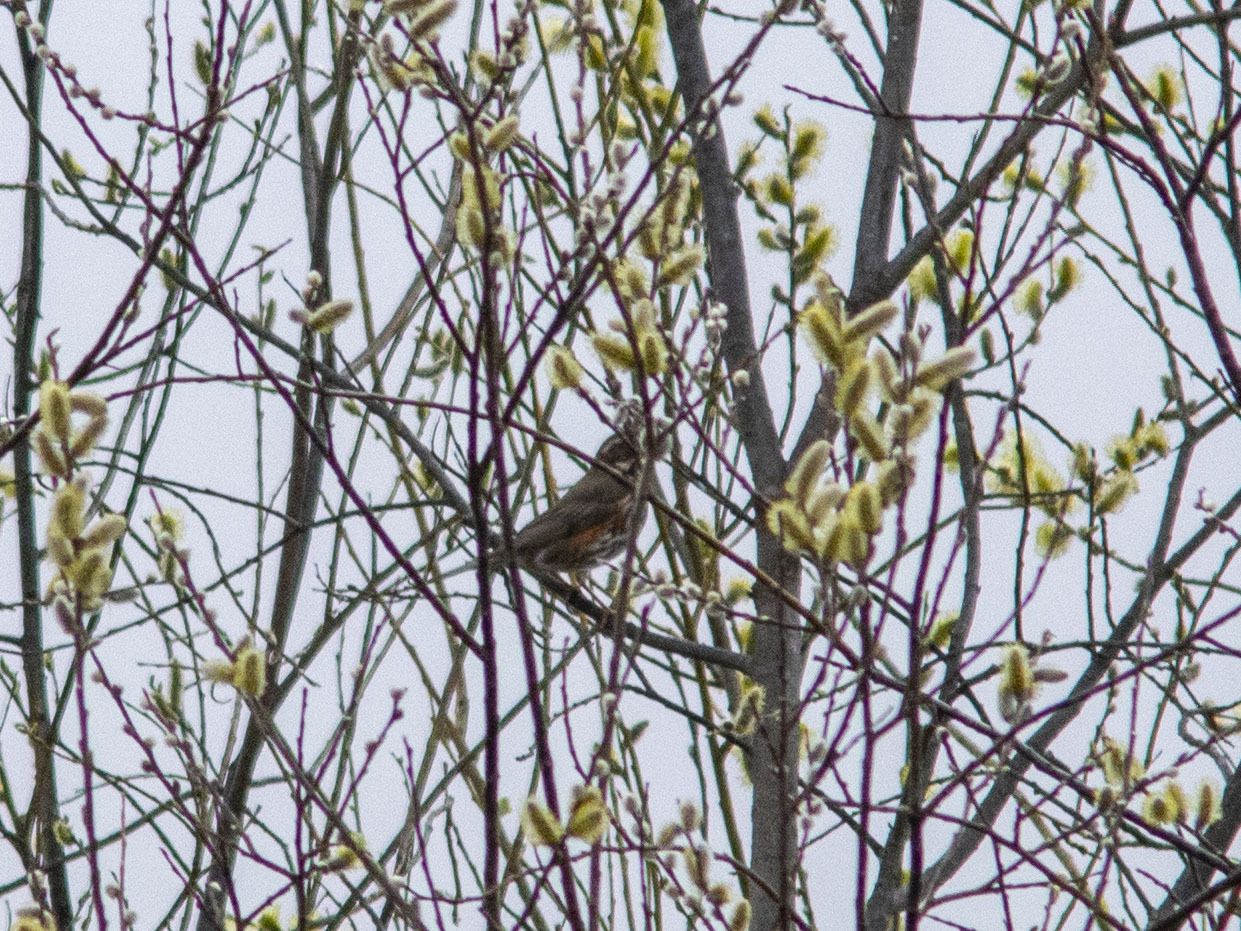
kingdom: Animalia
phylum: Chordata
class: Aves
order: Passeriformes
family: Turdidae
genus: Turdus
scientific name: Turdus iliacus
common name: Redwing
